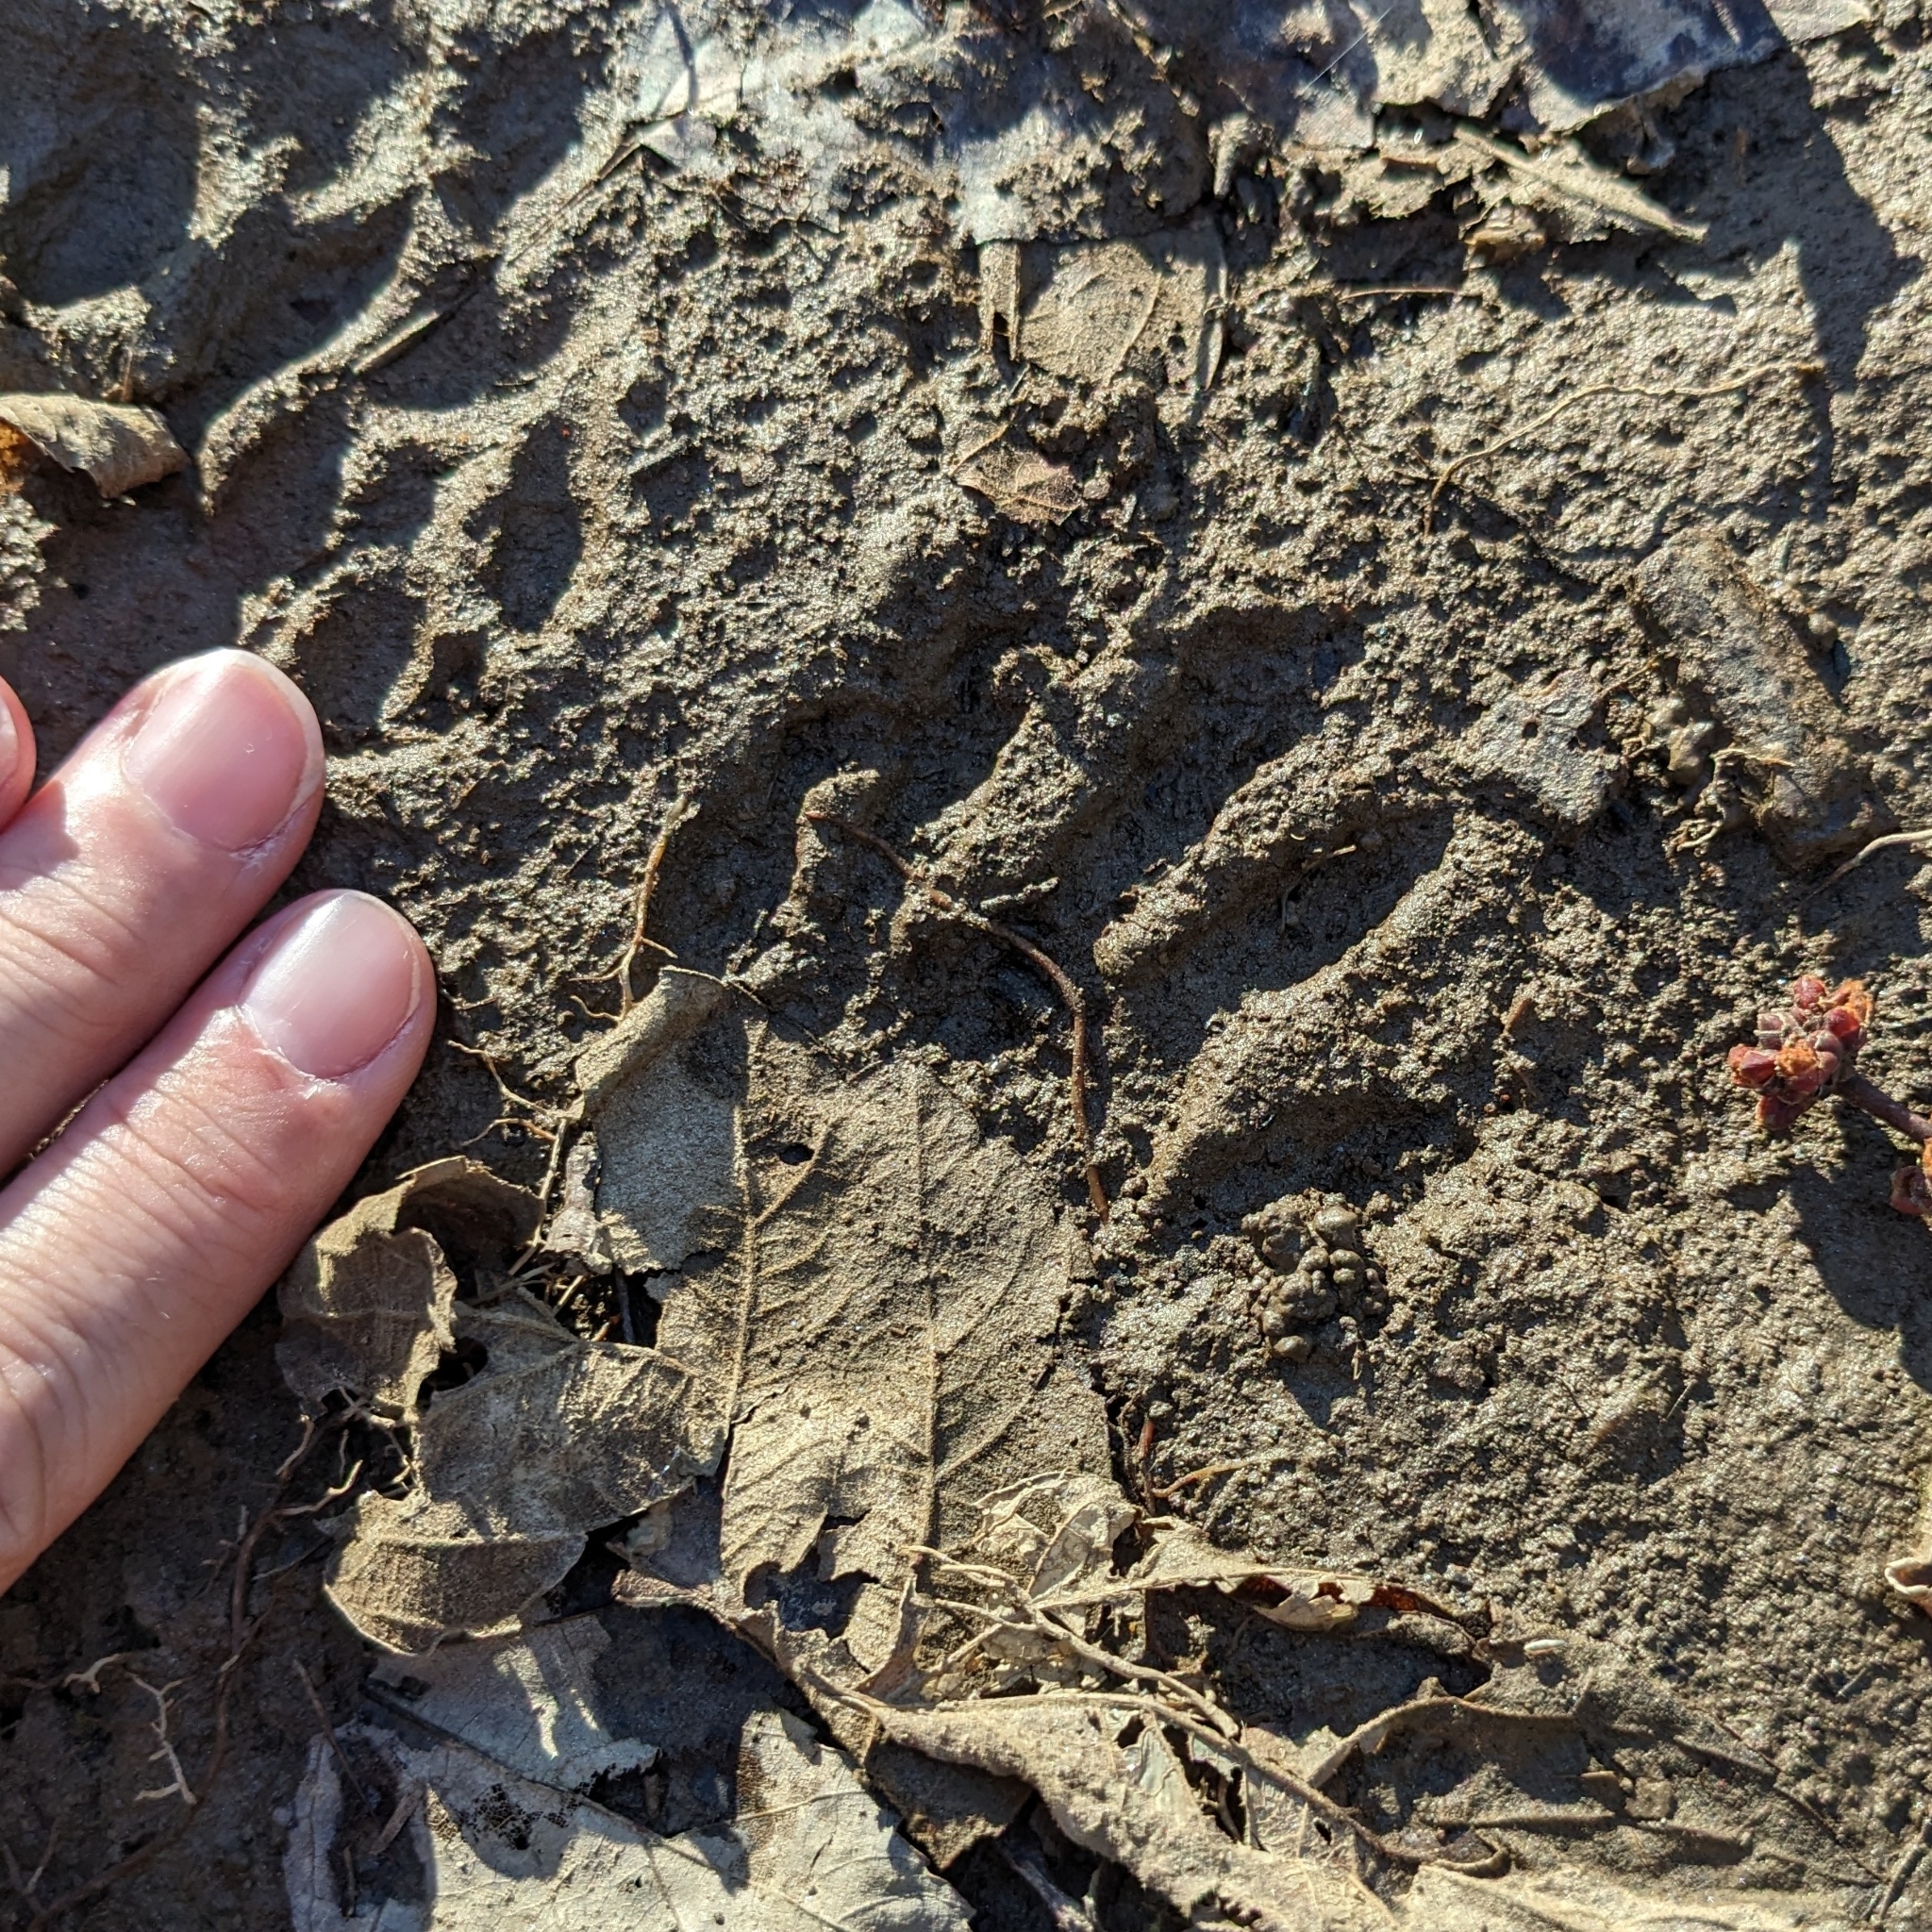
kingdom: Animalia
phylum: Chordata
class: Mammalia
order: Carnivora
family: Procyonidae
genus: Procyon
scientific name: Procyon lotor
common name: Raccoon
